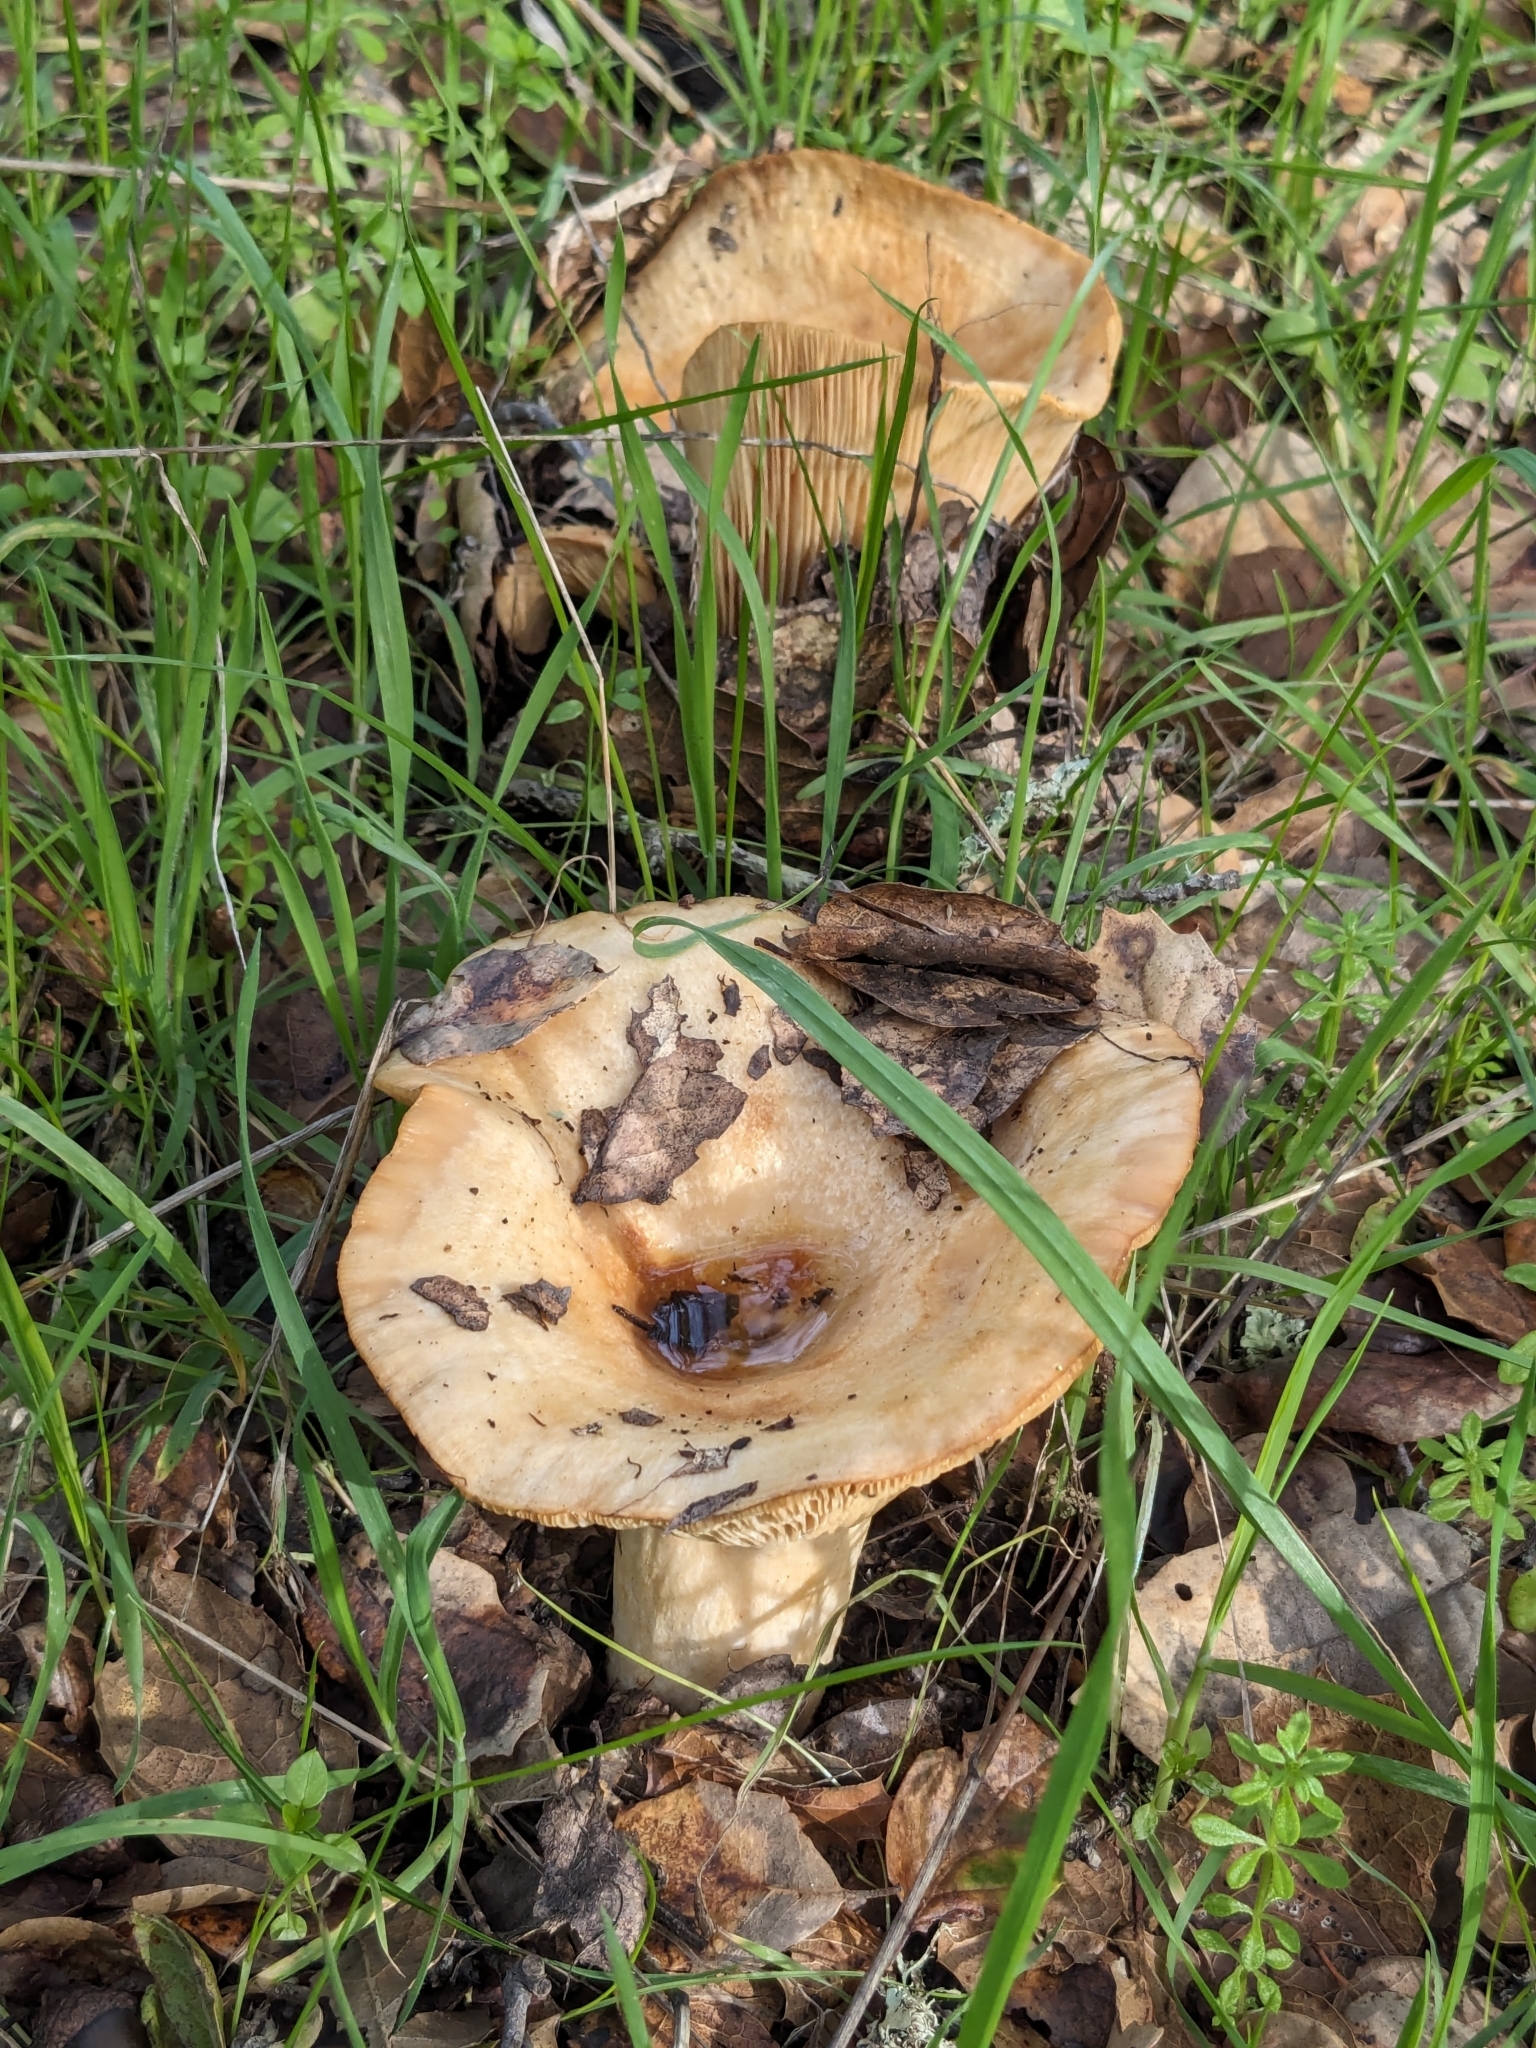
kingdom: Fungi
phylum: Basidiomycota
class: Agaricomycetes
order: Russulales
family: Russulaceae
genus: Lactarius
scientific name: Lactarius alnicola
